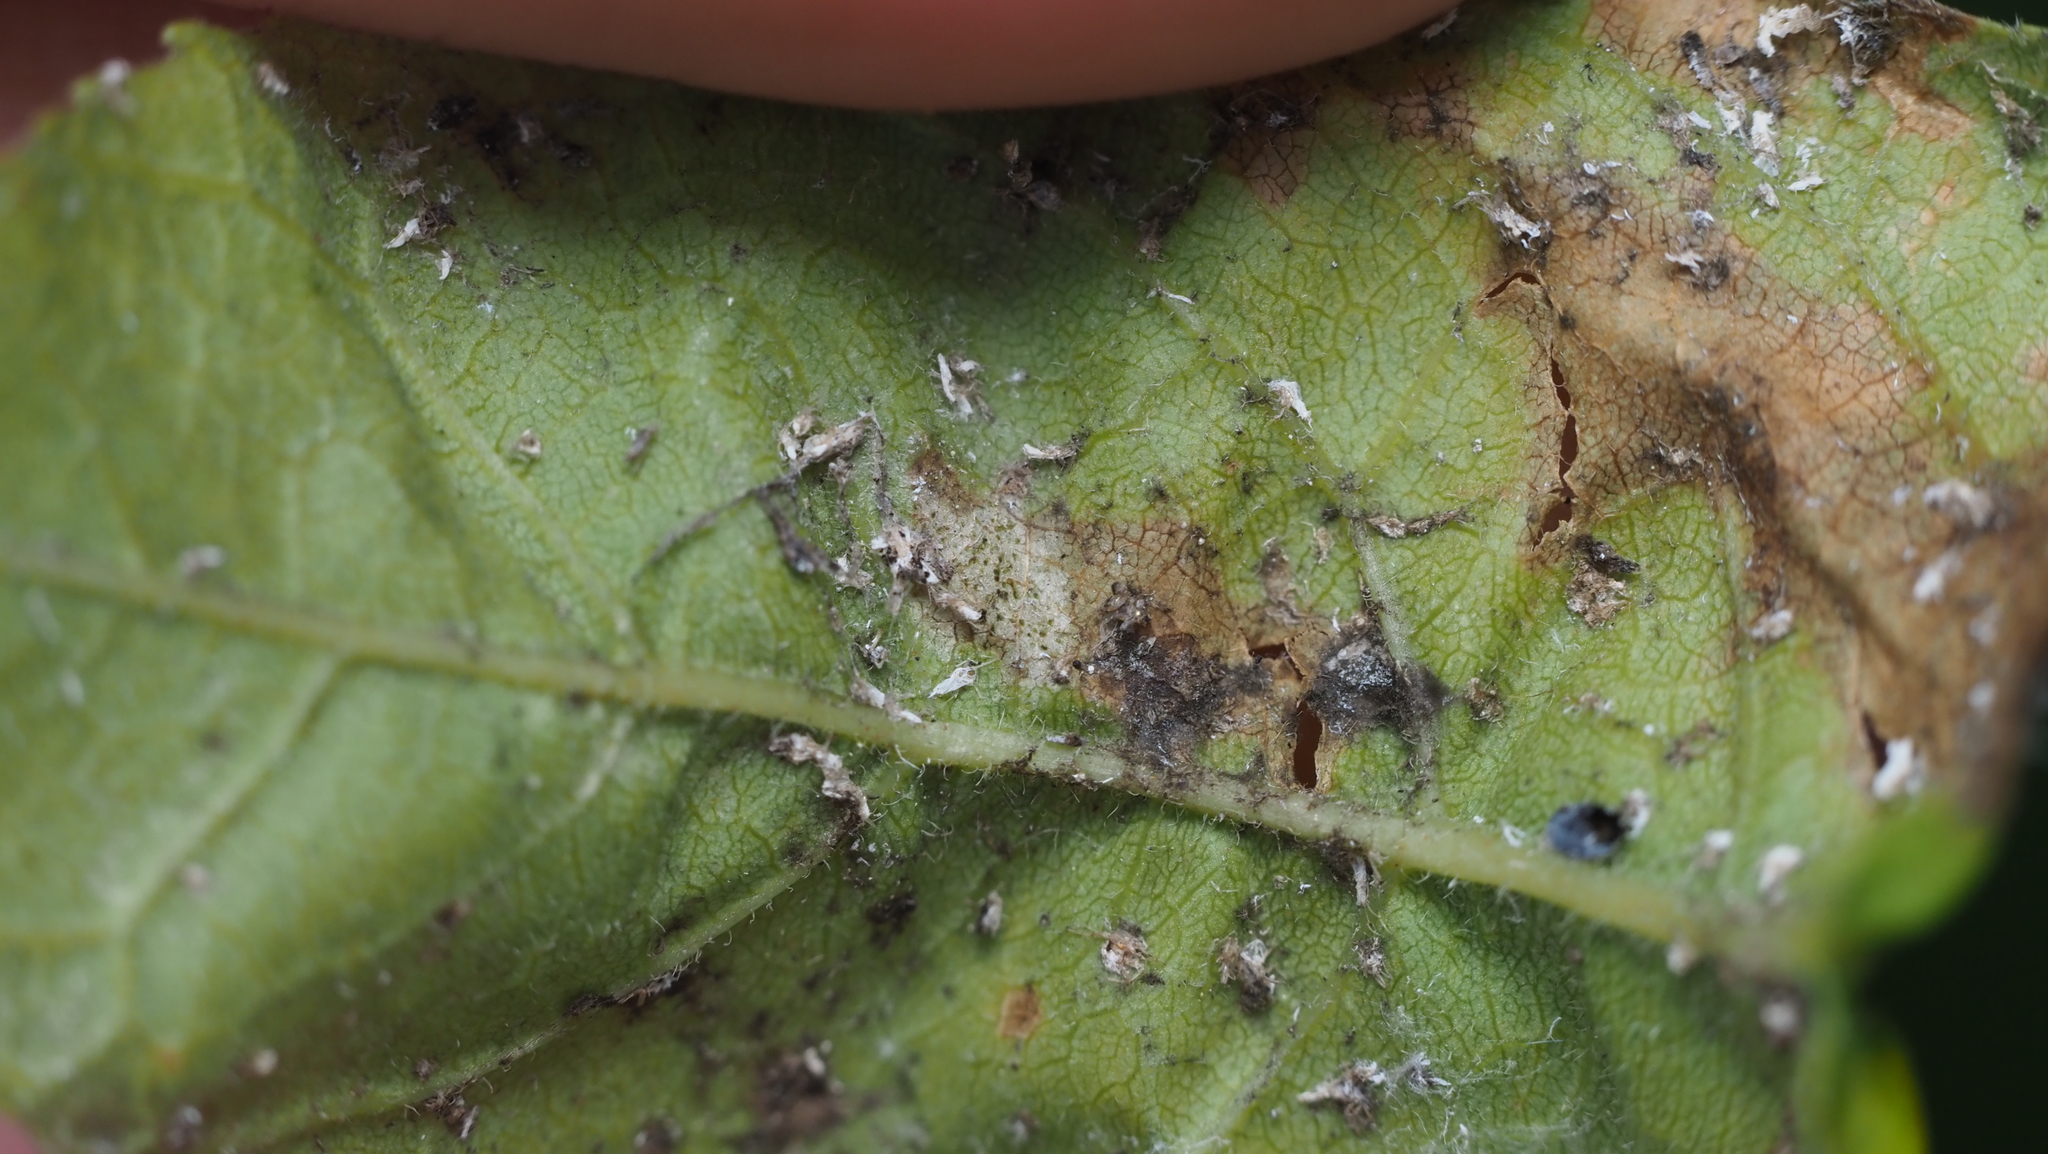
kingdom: Animalia
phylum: Arthropoda
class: Insecta
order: Hemiptera
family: Aphididae
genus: Prociphilus
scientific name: Prociphilus fraxinifolii
